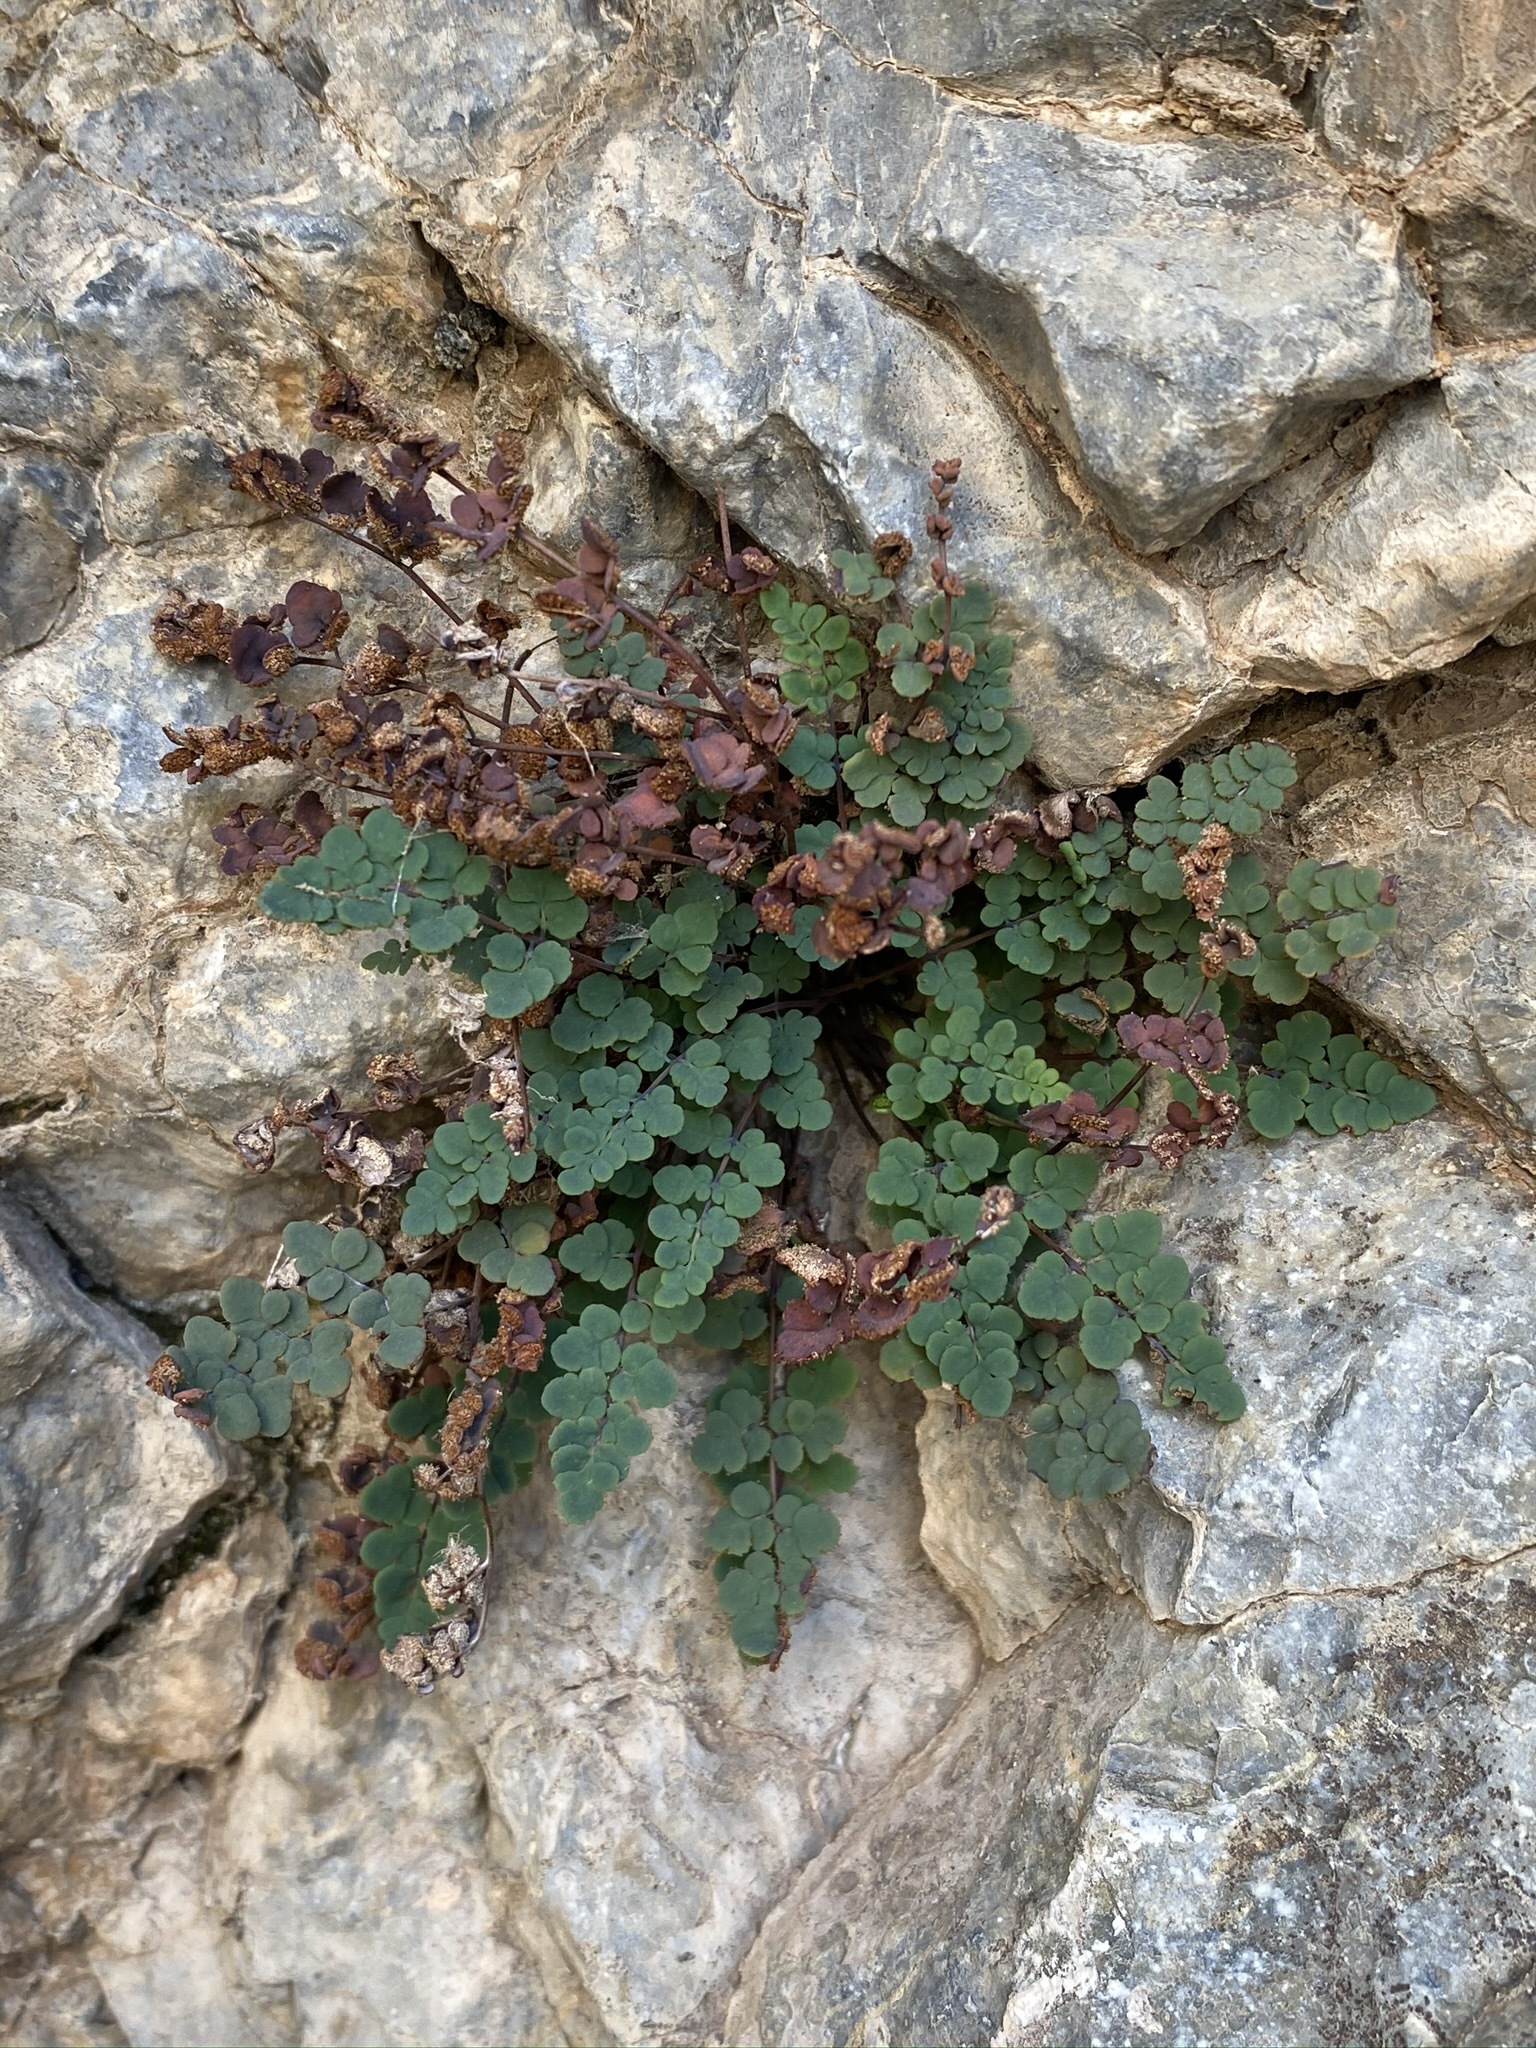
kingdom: Plantae
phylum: Tracheophyta
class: Polypodiopsida
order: Polypodiales
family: Pteridaceae
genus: Argyrochosma
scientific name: Argyrochosma jonesii
